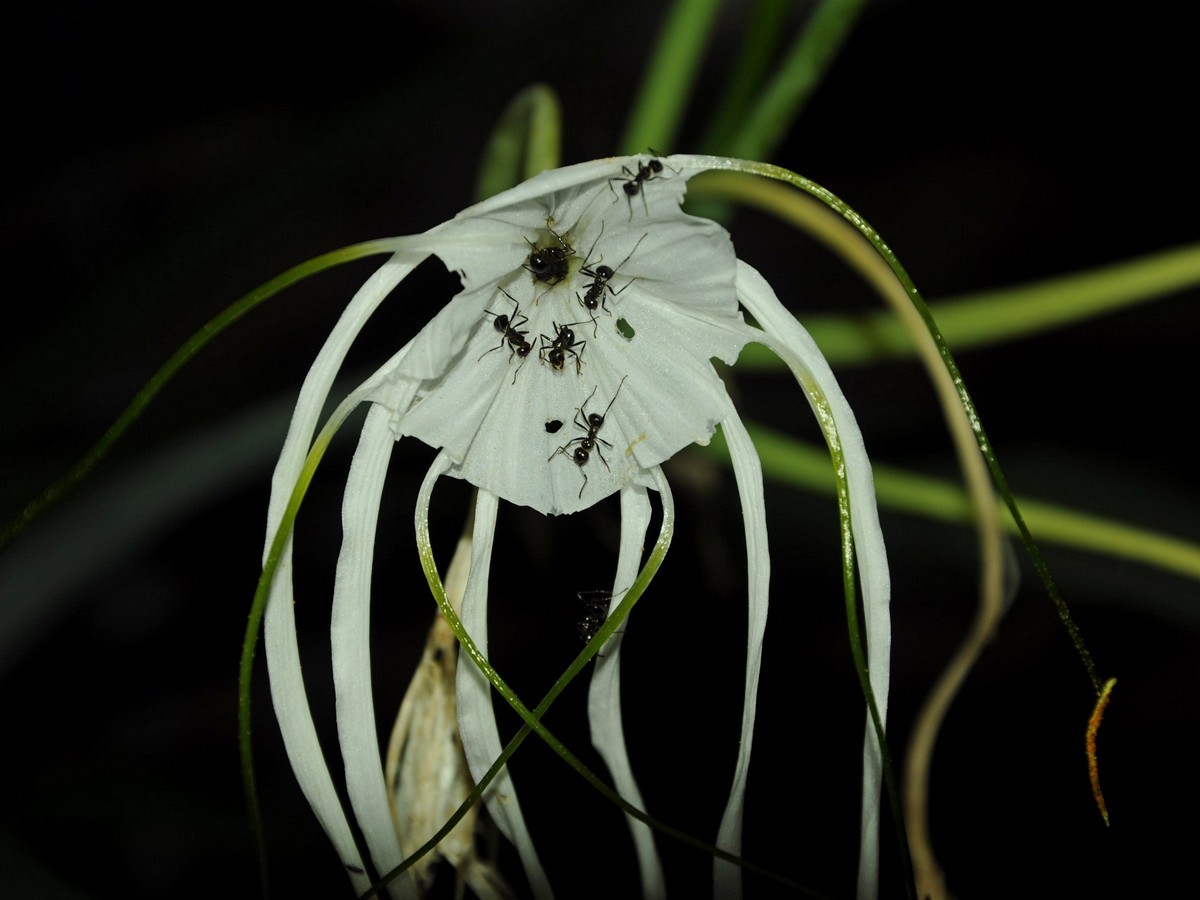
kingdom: Plantae
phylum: Tracheophyta
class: Liliopsida
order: Asparagales
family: Amaryllidaceae
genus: Hymenocallis
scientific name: Hymenocallis littoralis
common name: Beach spiderlily
